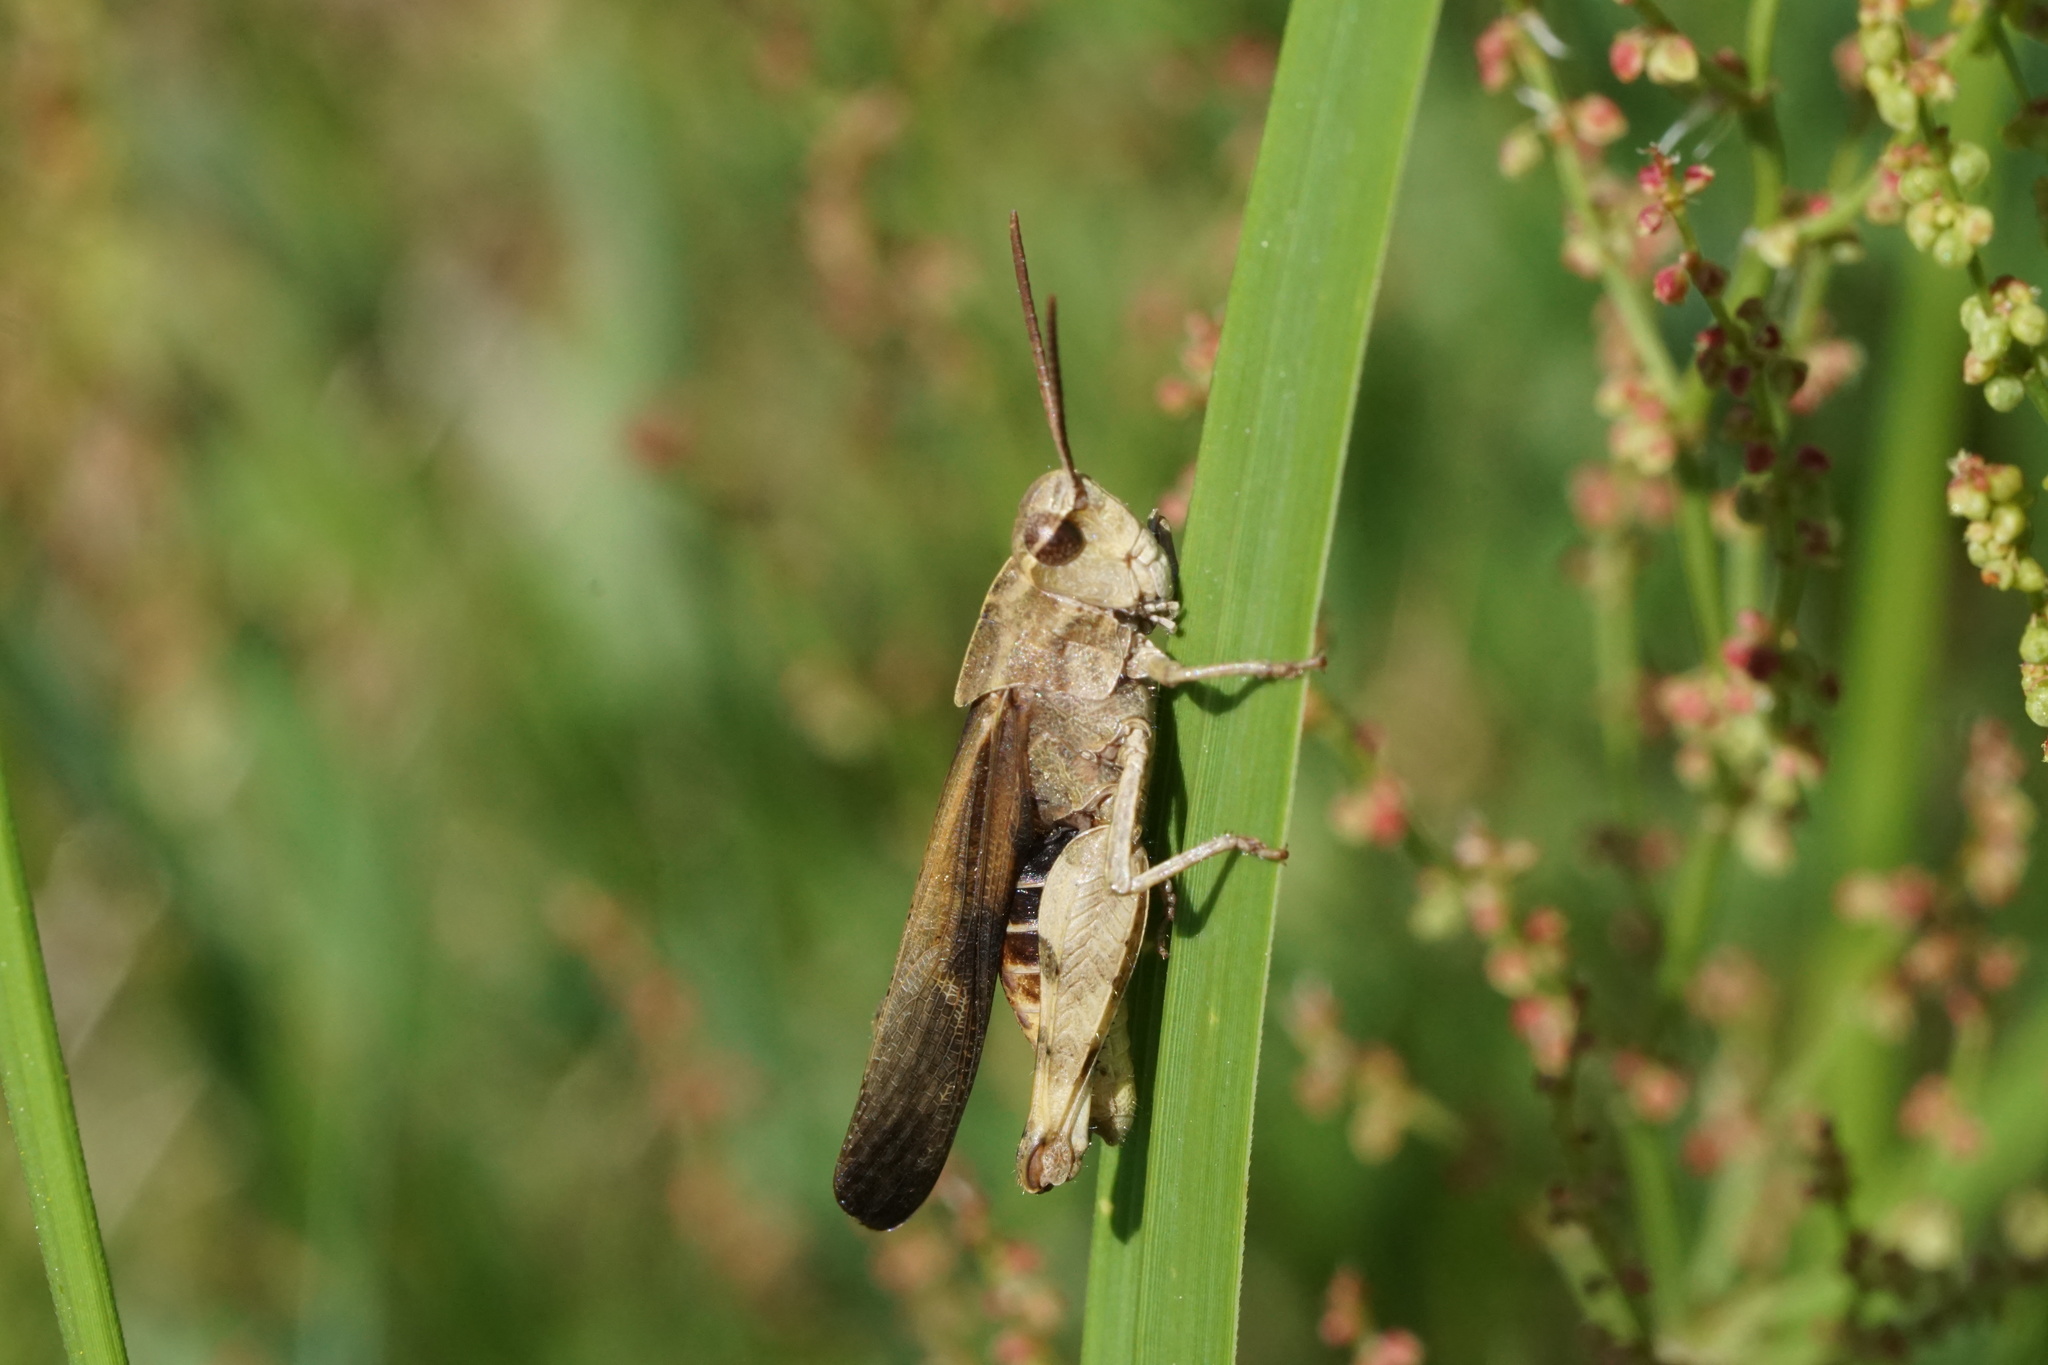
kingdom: Animalia
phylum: Arthropoda
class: Insecta
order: Orthoptera
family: Acrididae
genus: Chortophaga
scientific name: Chortophaga viridifasciata
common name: Green-striped grasshopper
